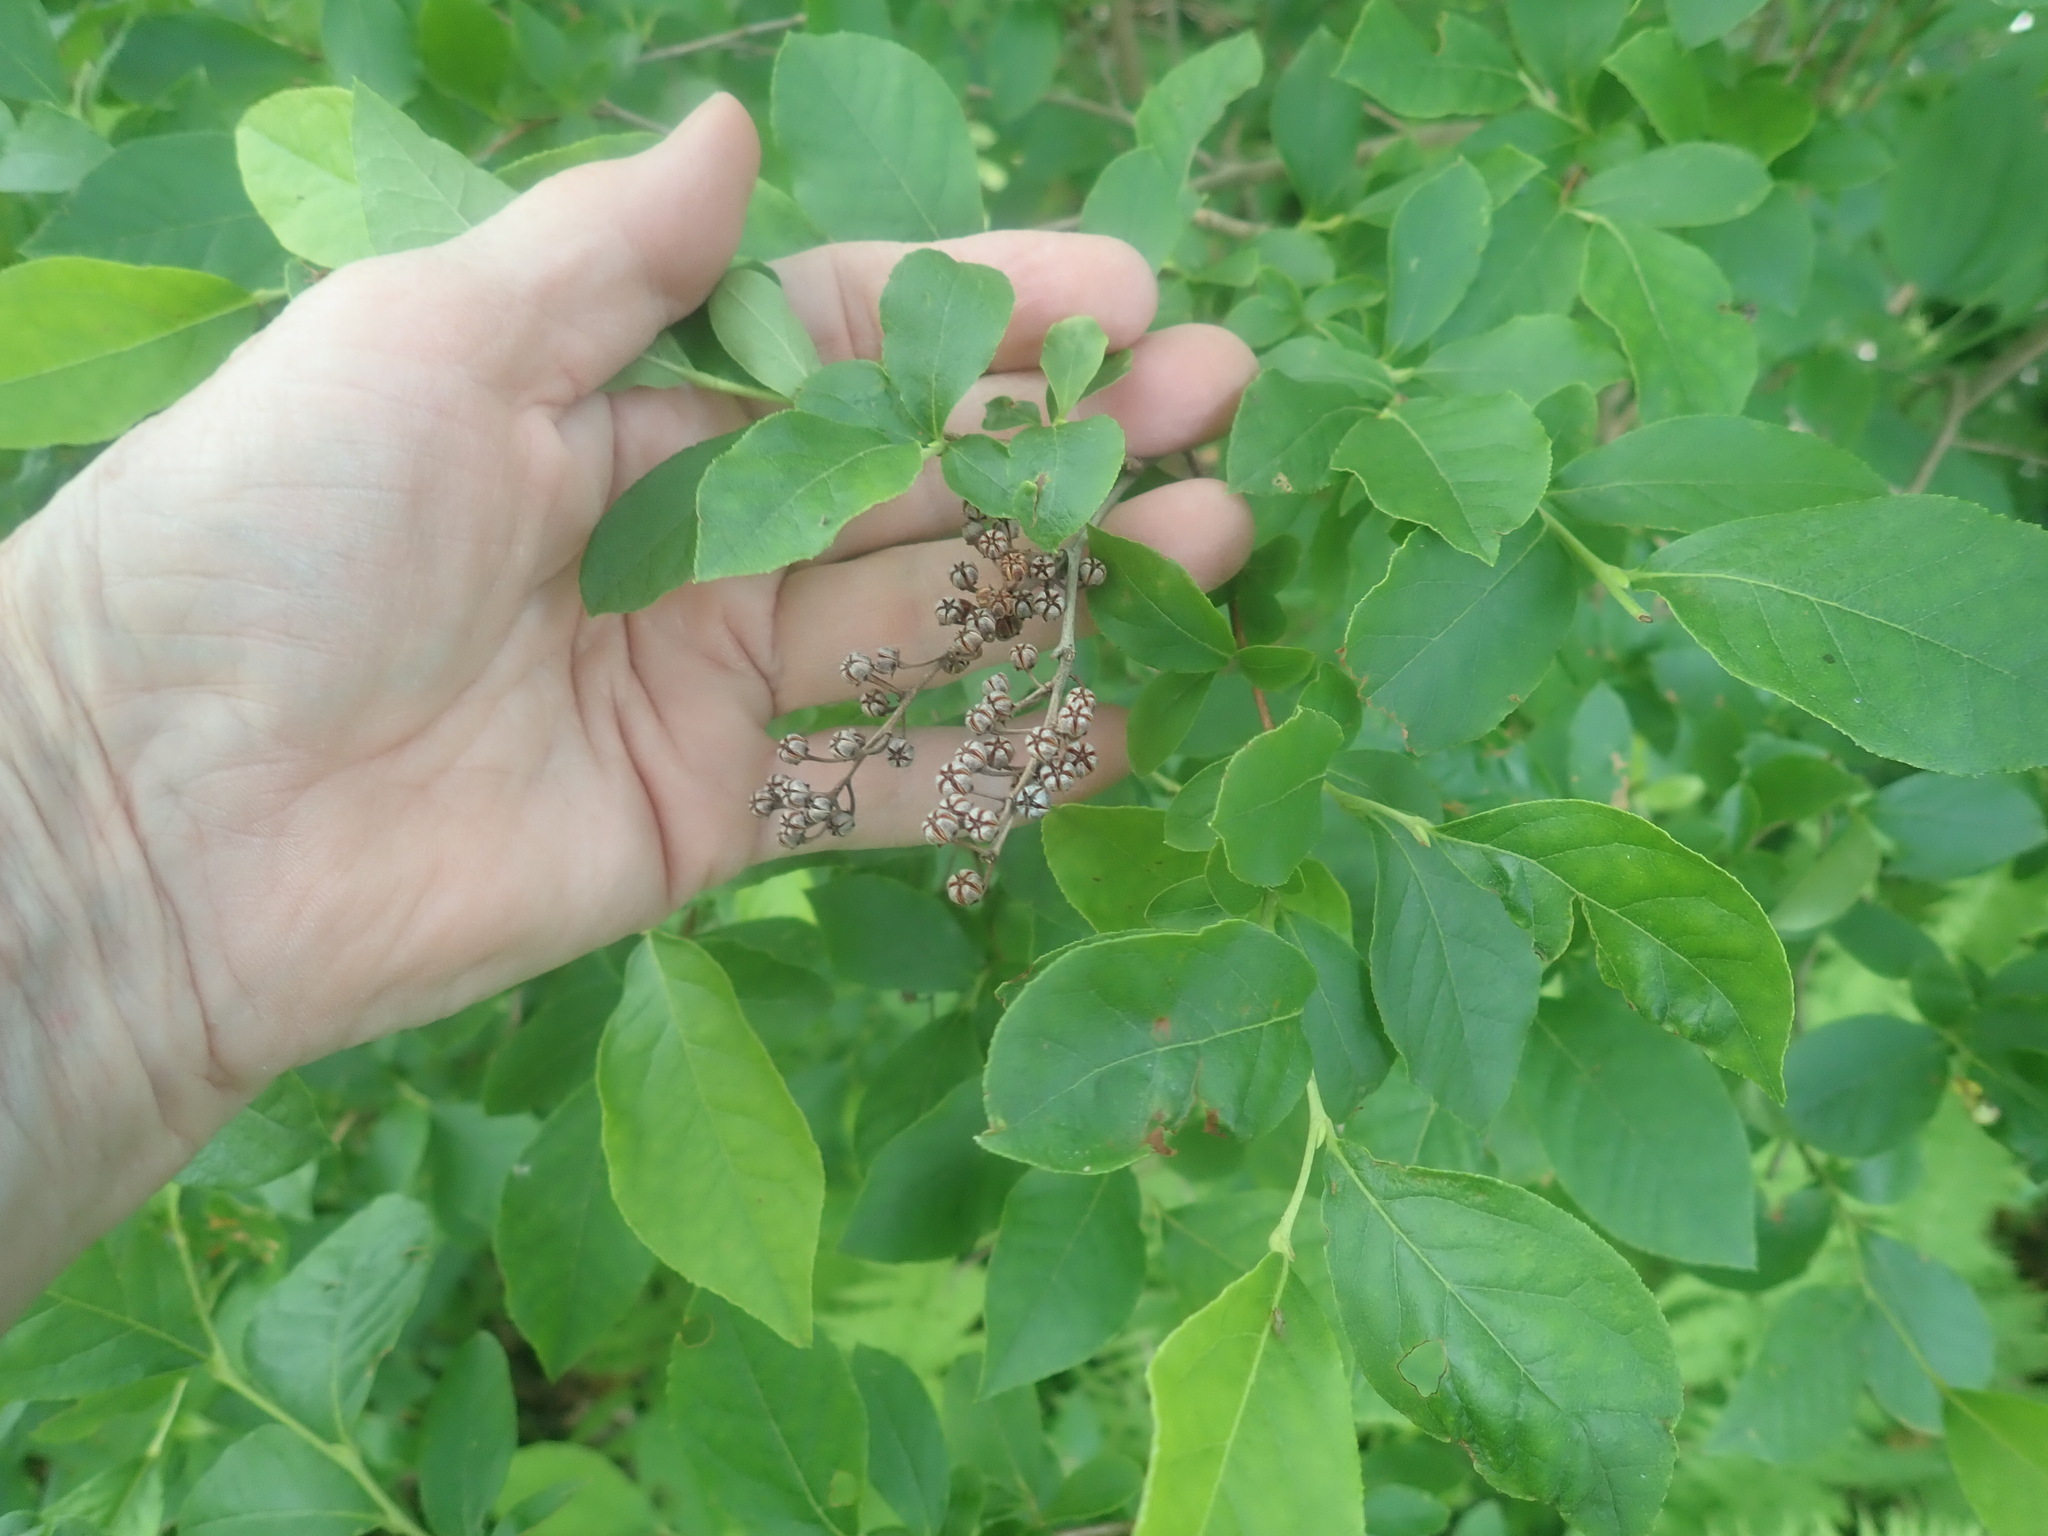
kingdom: Plantae
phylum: Tracheophyta
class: Magnoliopsida
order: Ericales
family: Ericaceae
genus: Lyonia
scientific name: Lyonia ligustrina
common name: Maleberry
